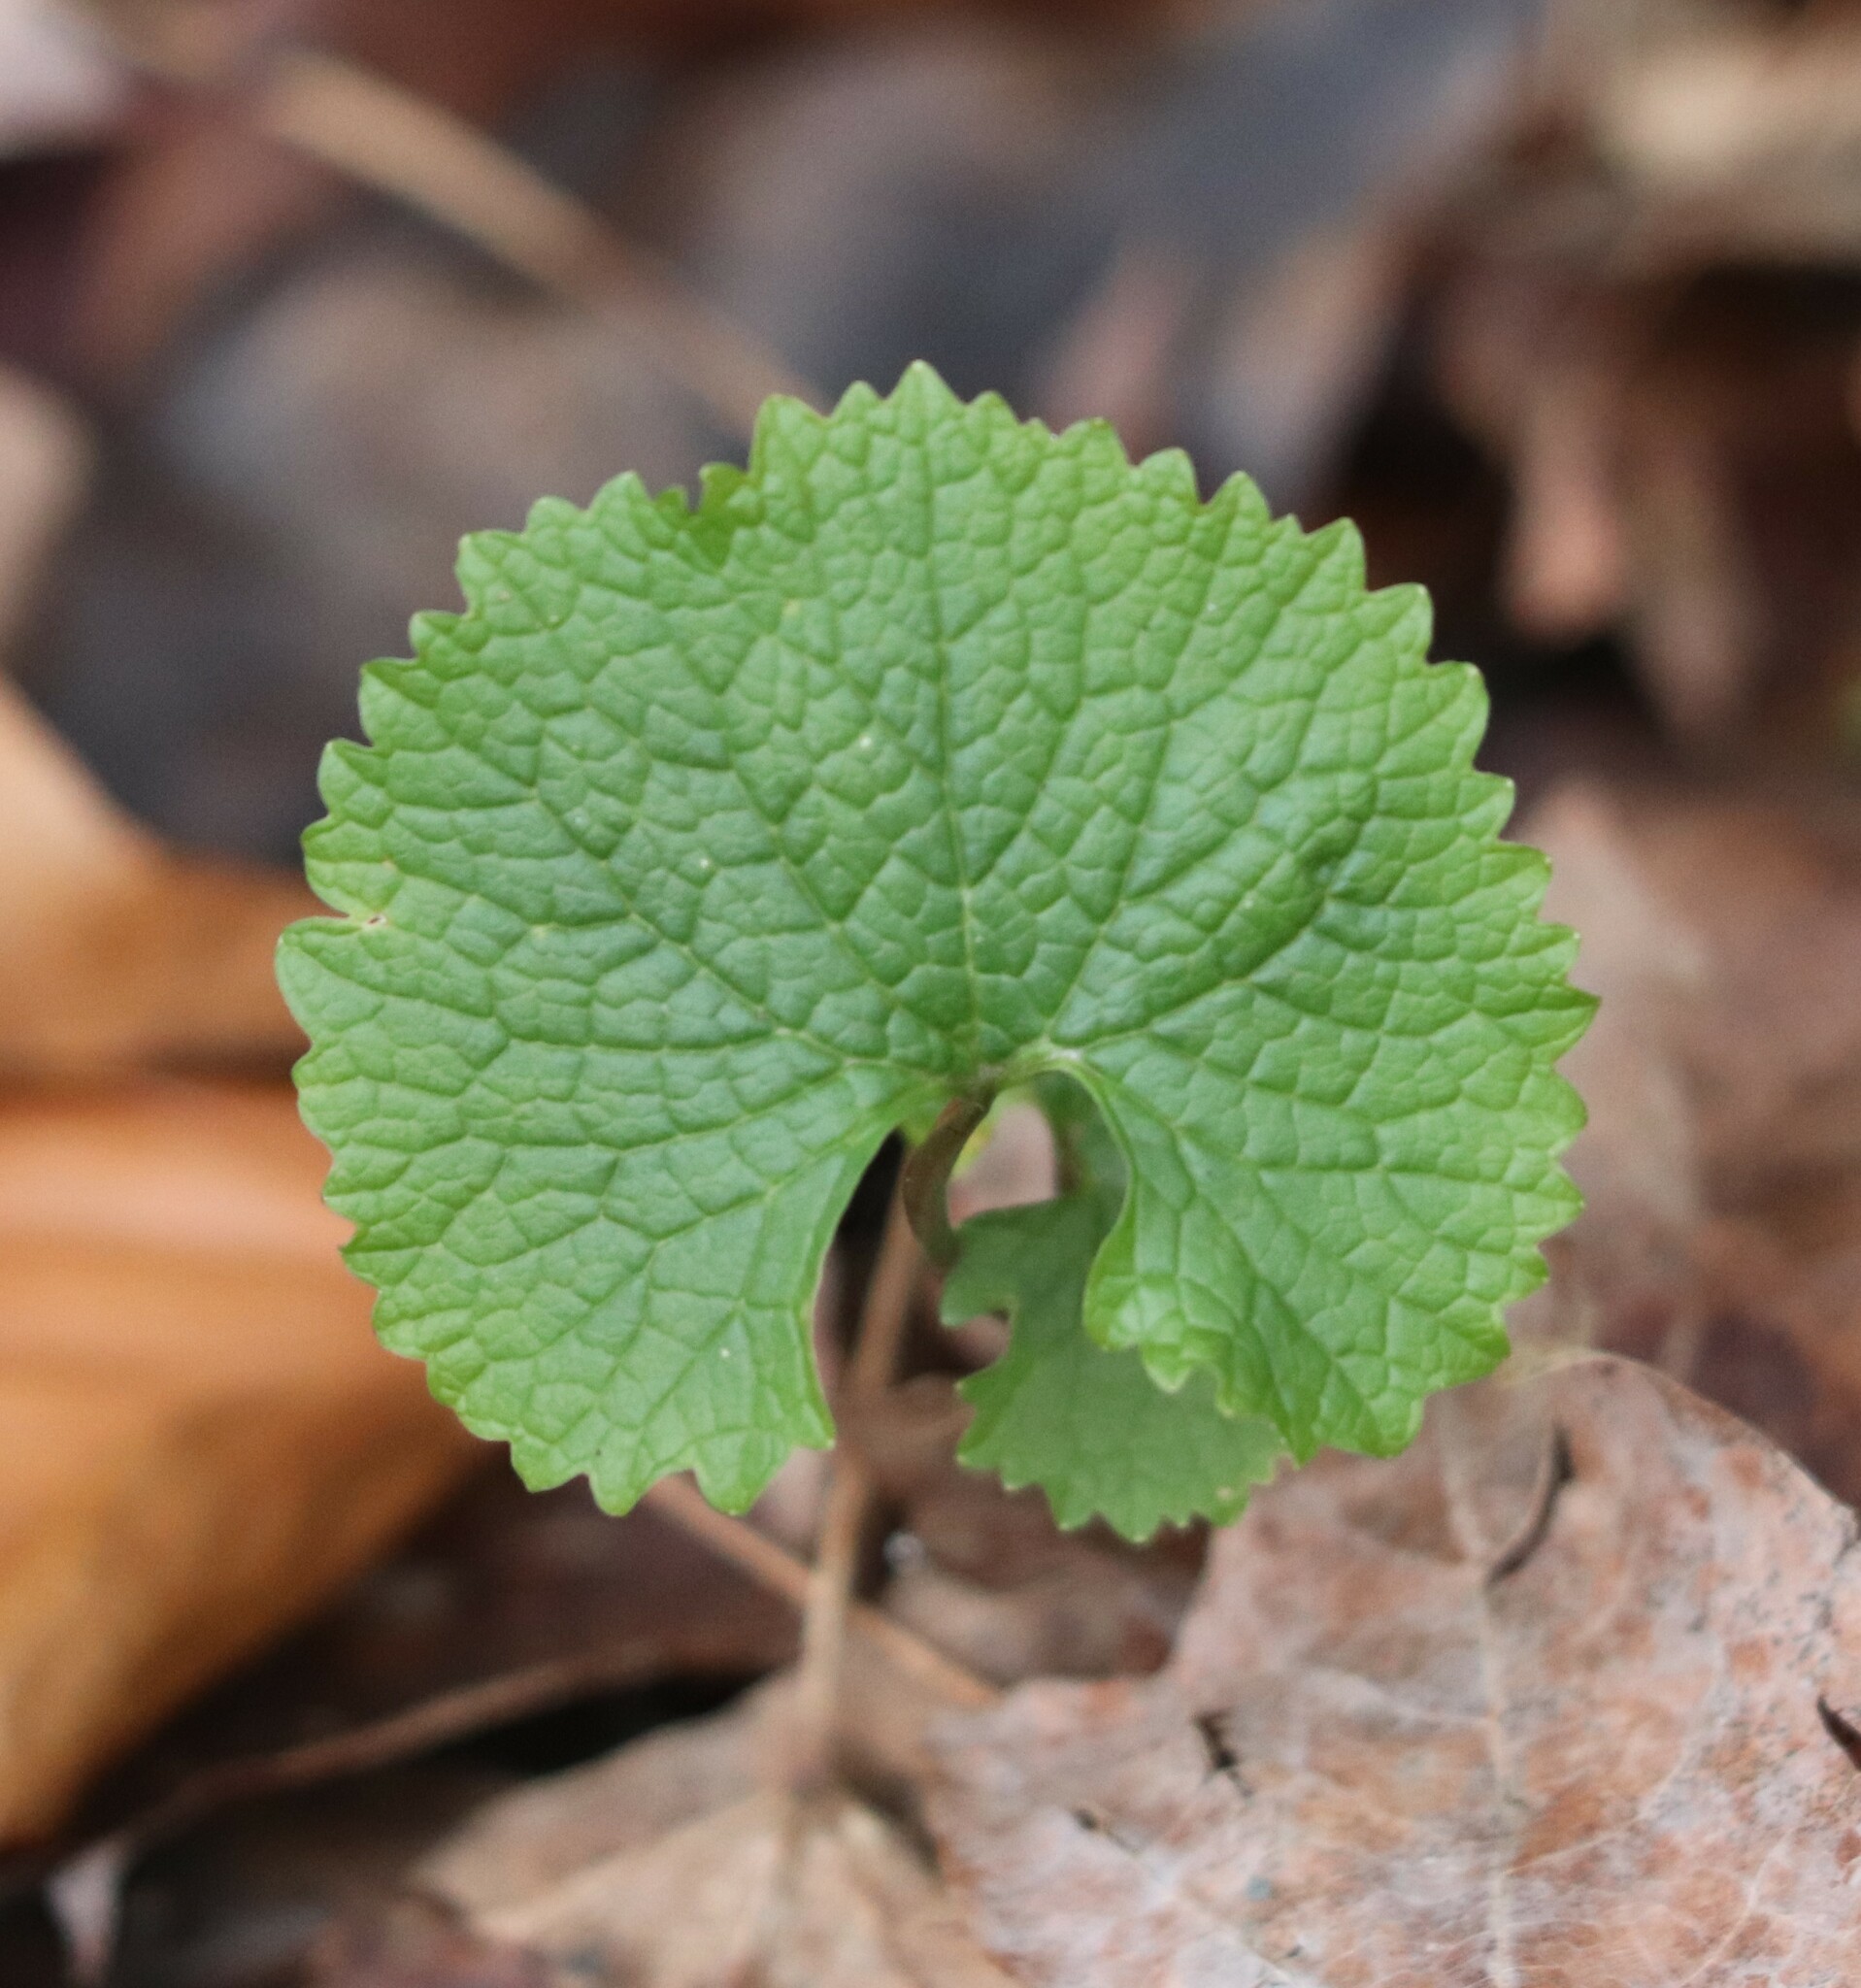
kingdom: Plantae
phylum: Tracheophyta
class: Magnoliopsida
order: Brassicales
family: Brassicaceae
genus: Alliaria
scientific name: Alliaria petiolata
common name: Garlic mustard
